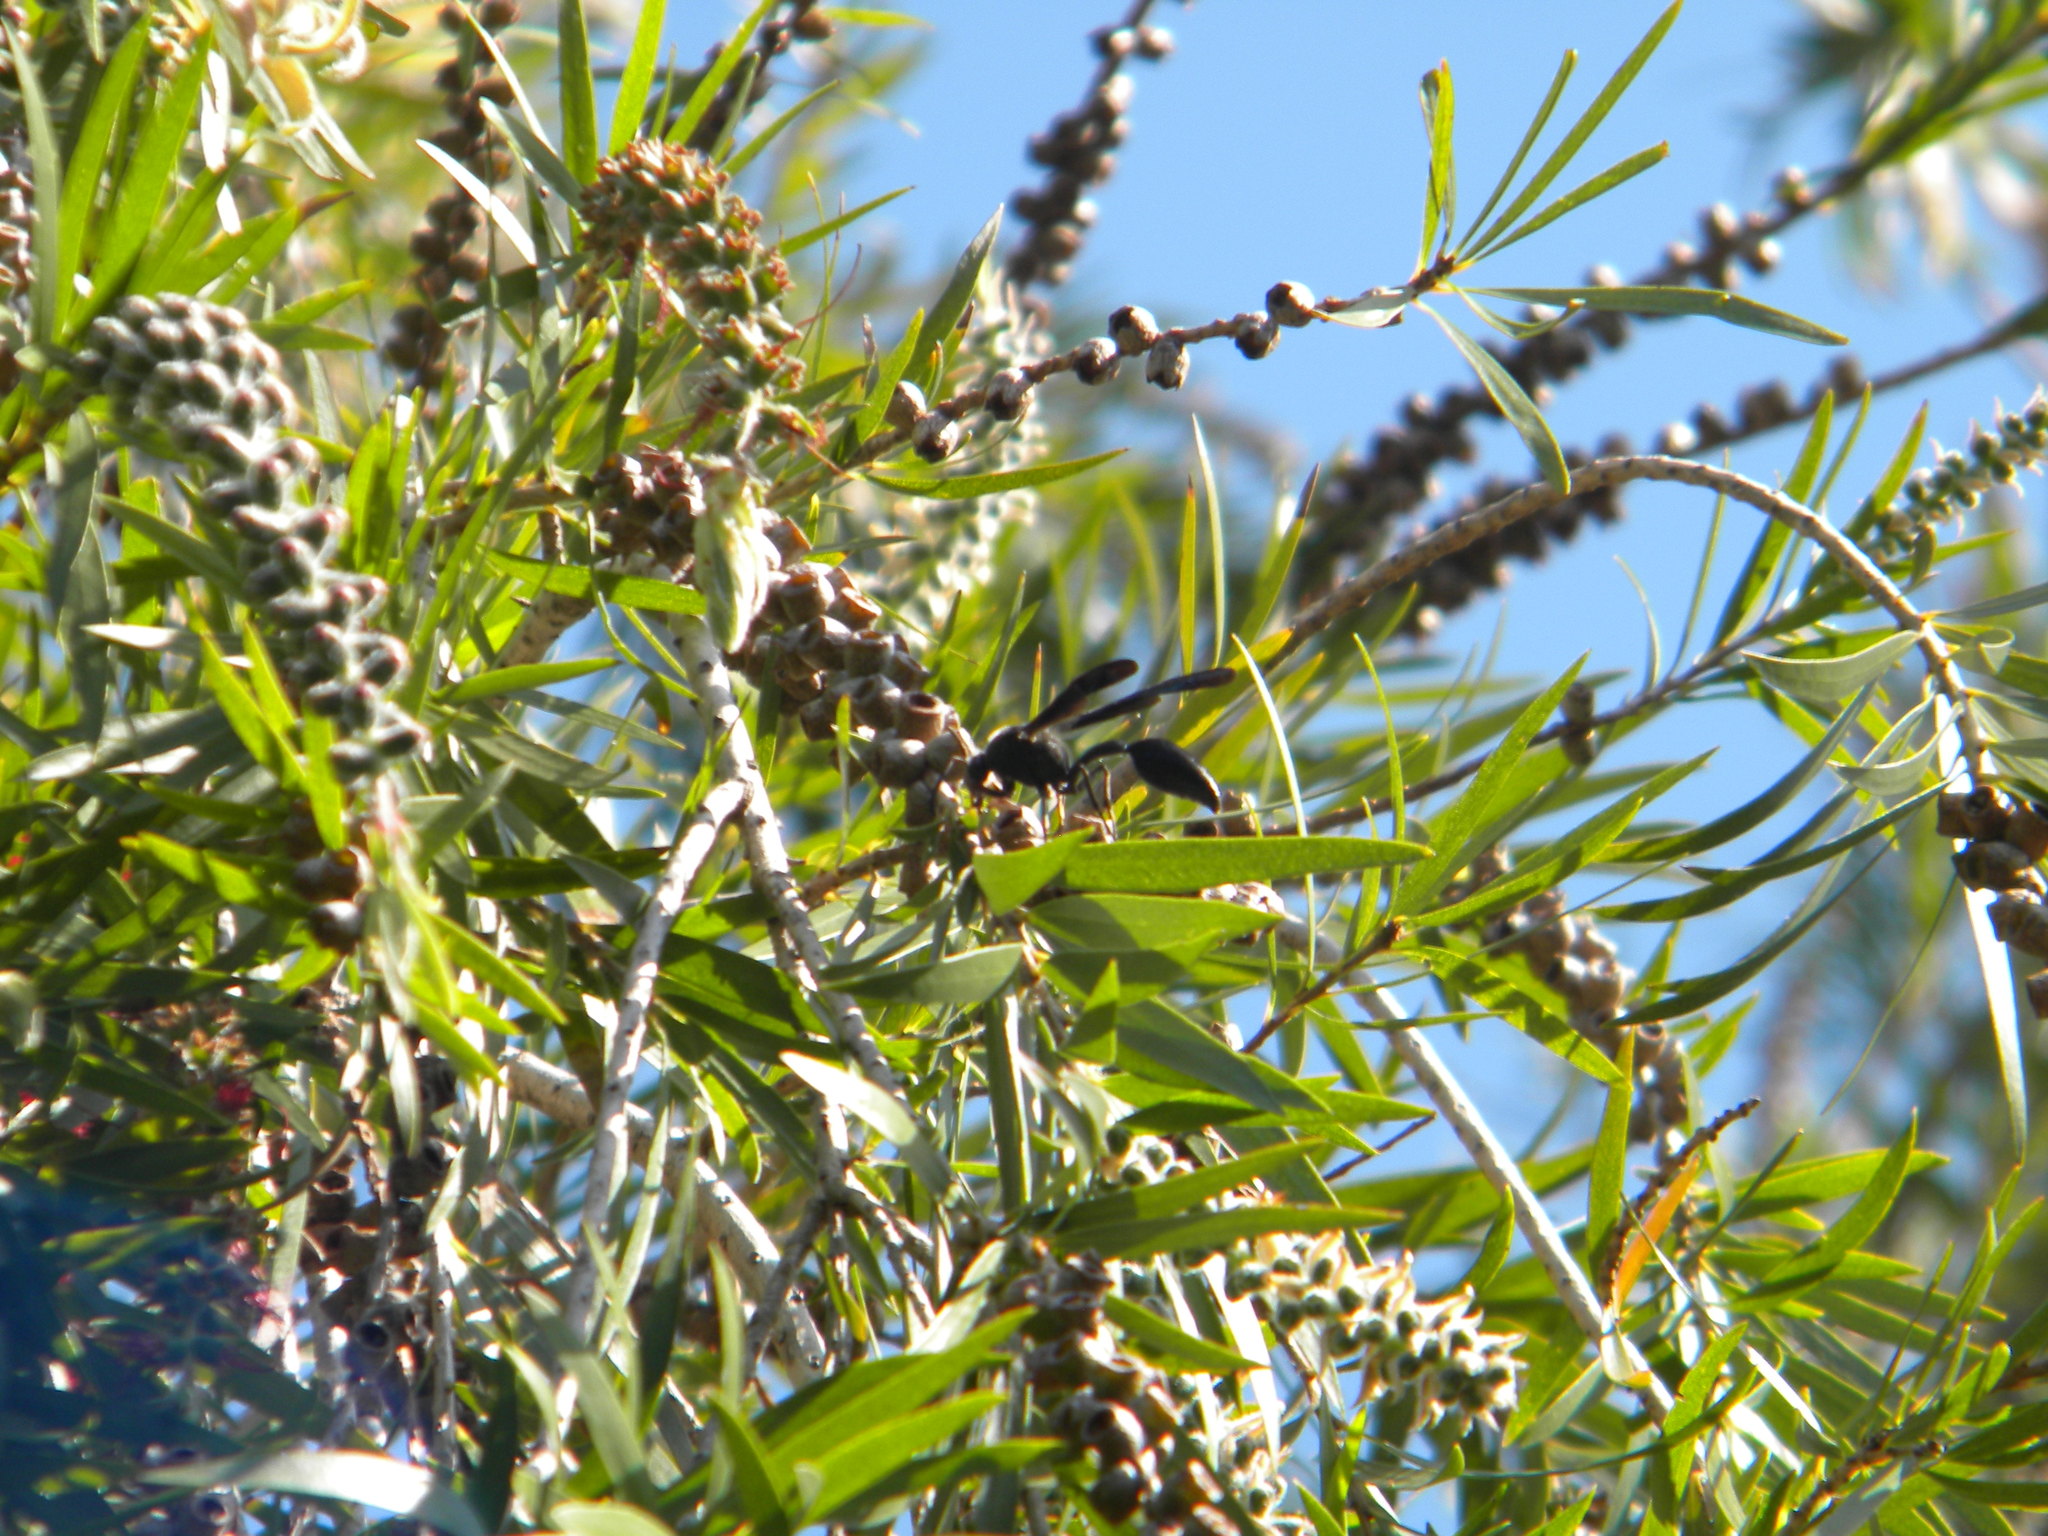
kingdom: Animalia
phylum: Arthropoda
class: Insecta
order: Hymenoptera
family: Eumenidae
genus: Delta
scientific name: Delta bonellii
